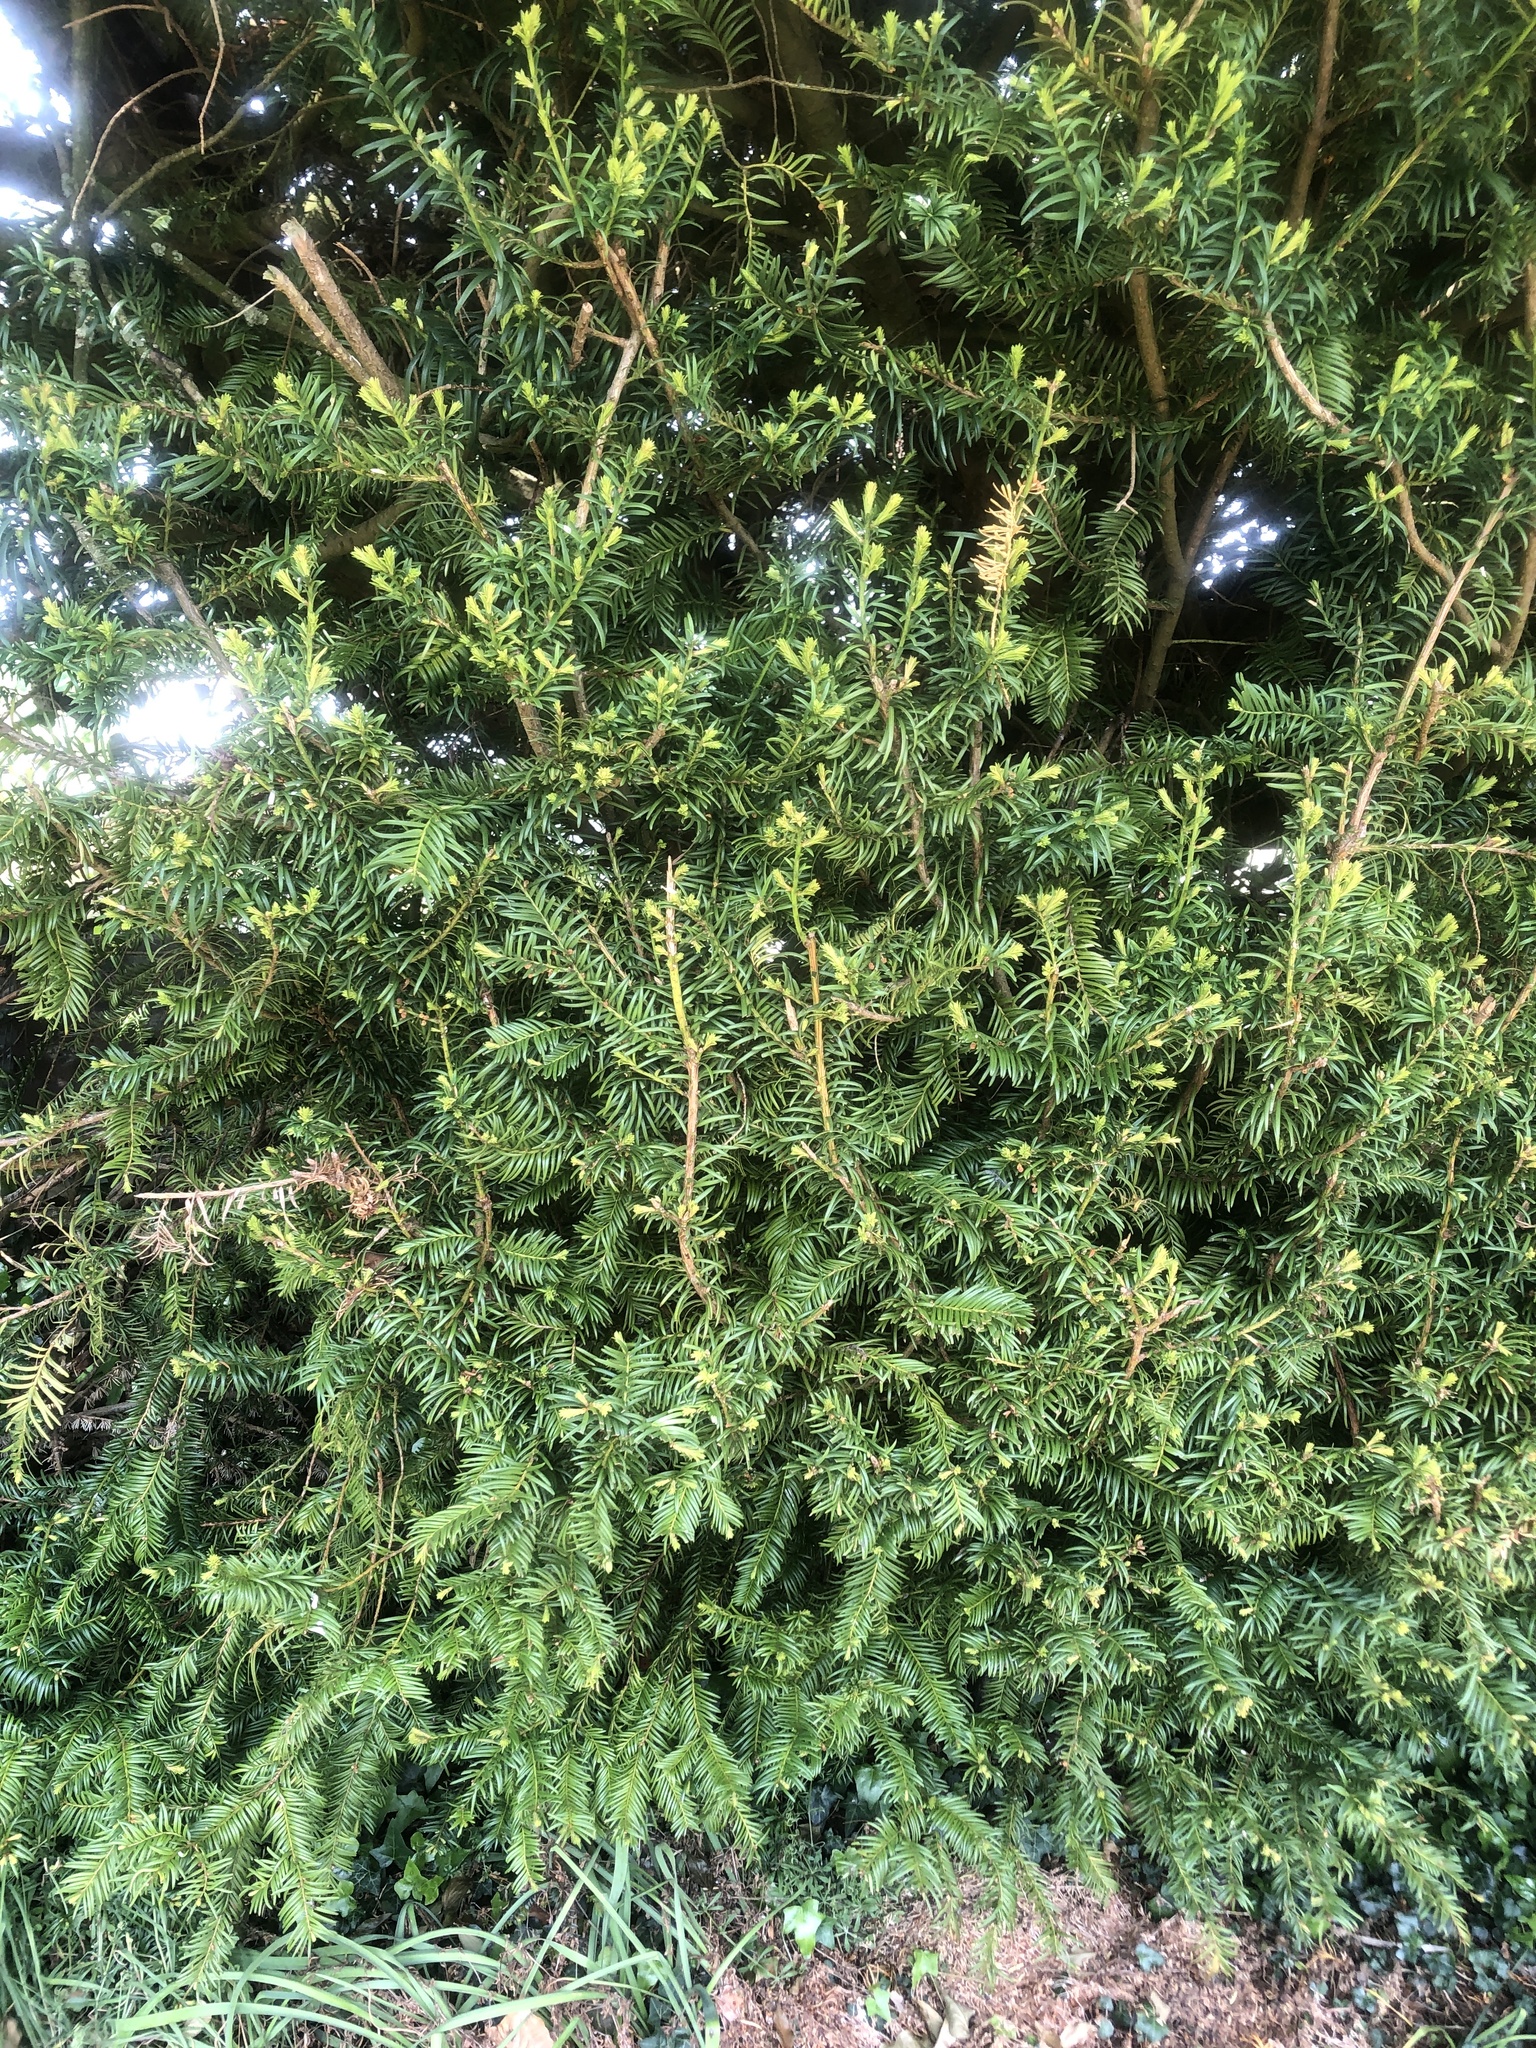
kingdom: Plantae
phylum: Tracheophyta
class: Pinopsida
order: Pinales
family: Taxaceae
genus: Taxus
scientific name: Taxus baccata
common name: Yew
